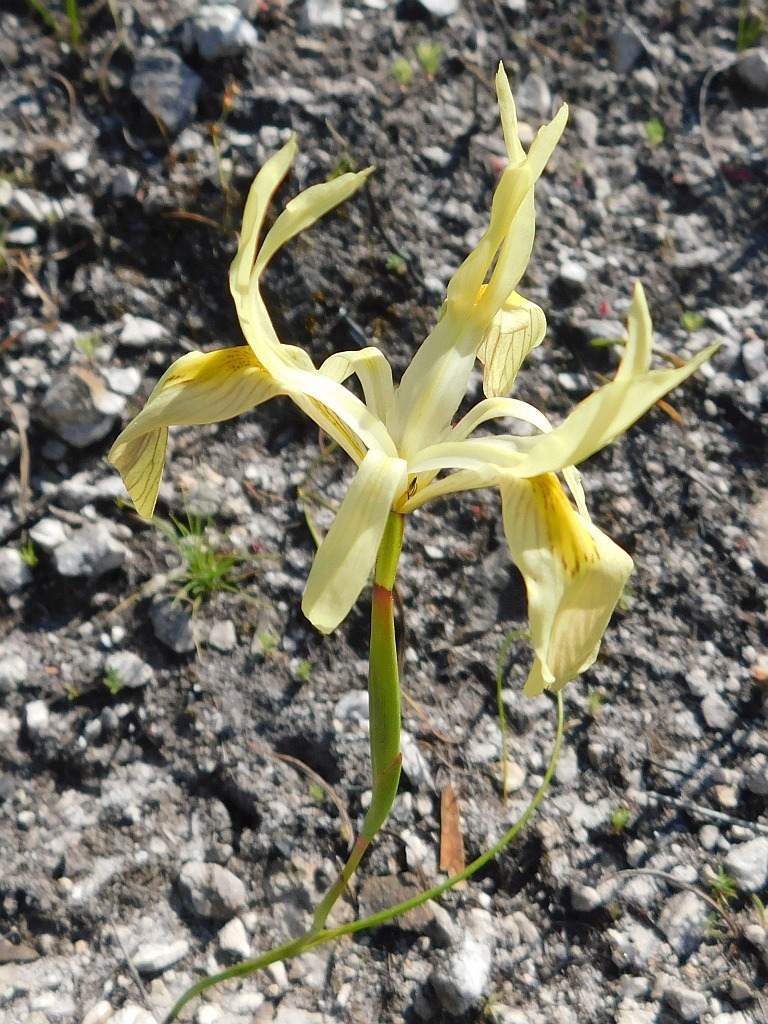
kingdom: Plantae
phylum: Tracheophyta
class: Liliopsida
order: Asparagales
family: Iridaceae
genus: Moraea
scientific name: Moraea angusta
